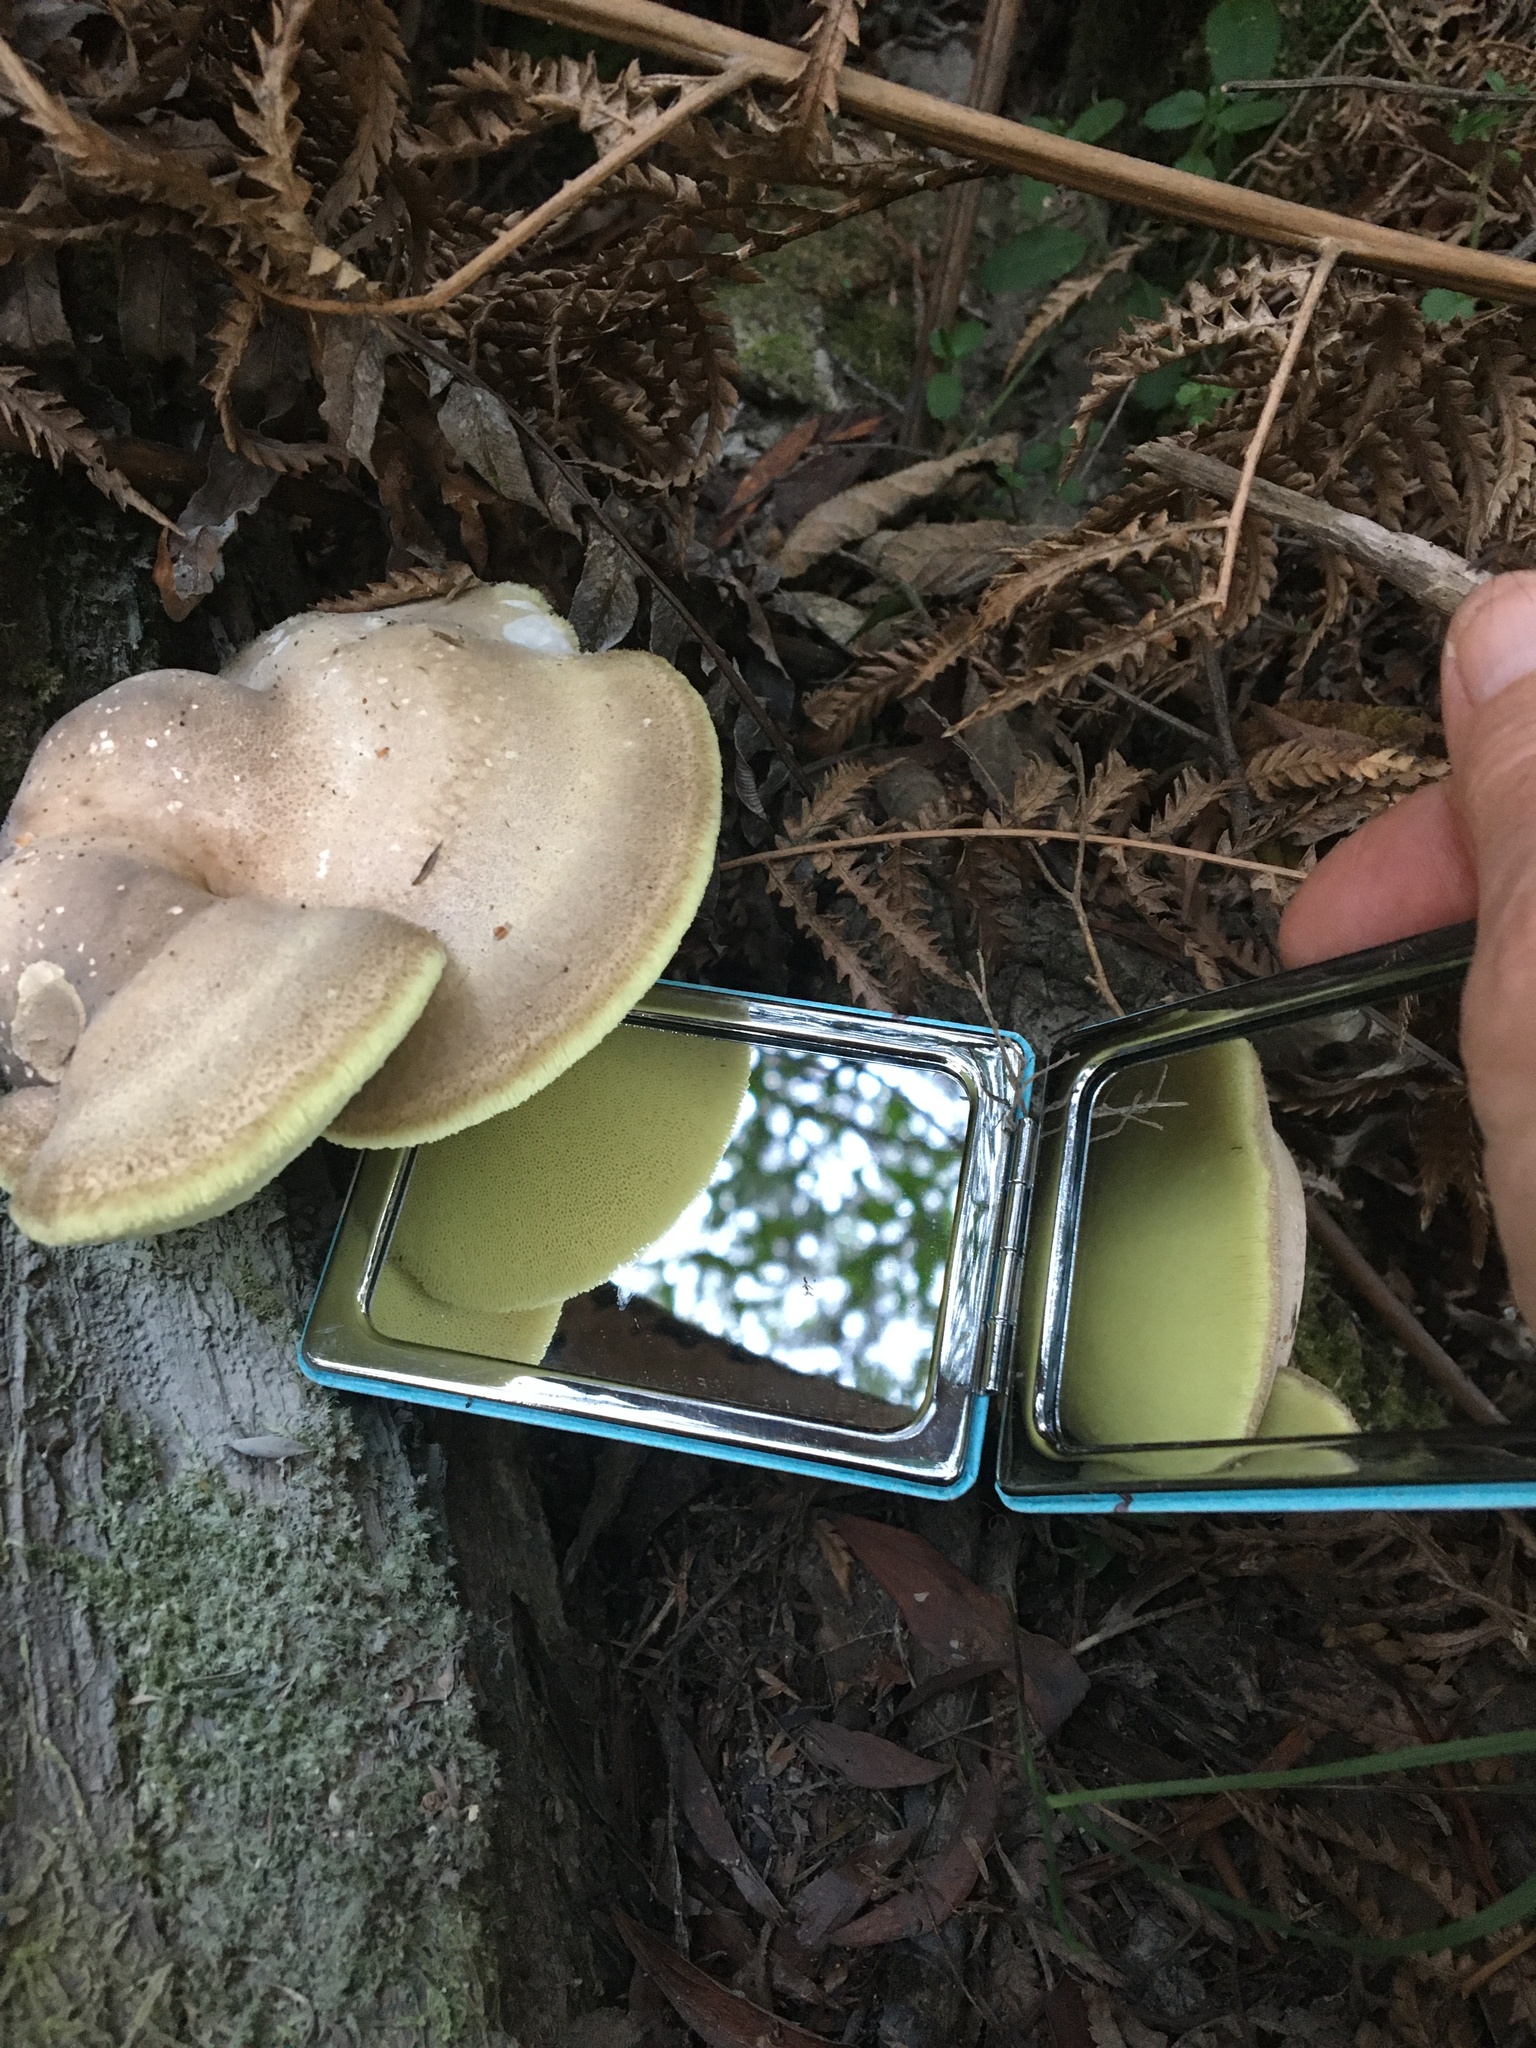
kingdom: Fungi
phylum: Basidiomycota
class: Agaricomycetes
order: Polyporales
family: Laetiporaceae
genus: Laetiporus
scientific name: Laetiporus portentosus
